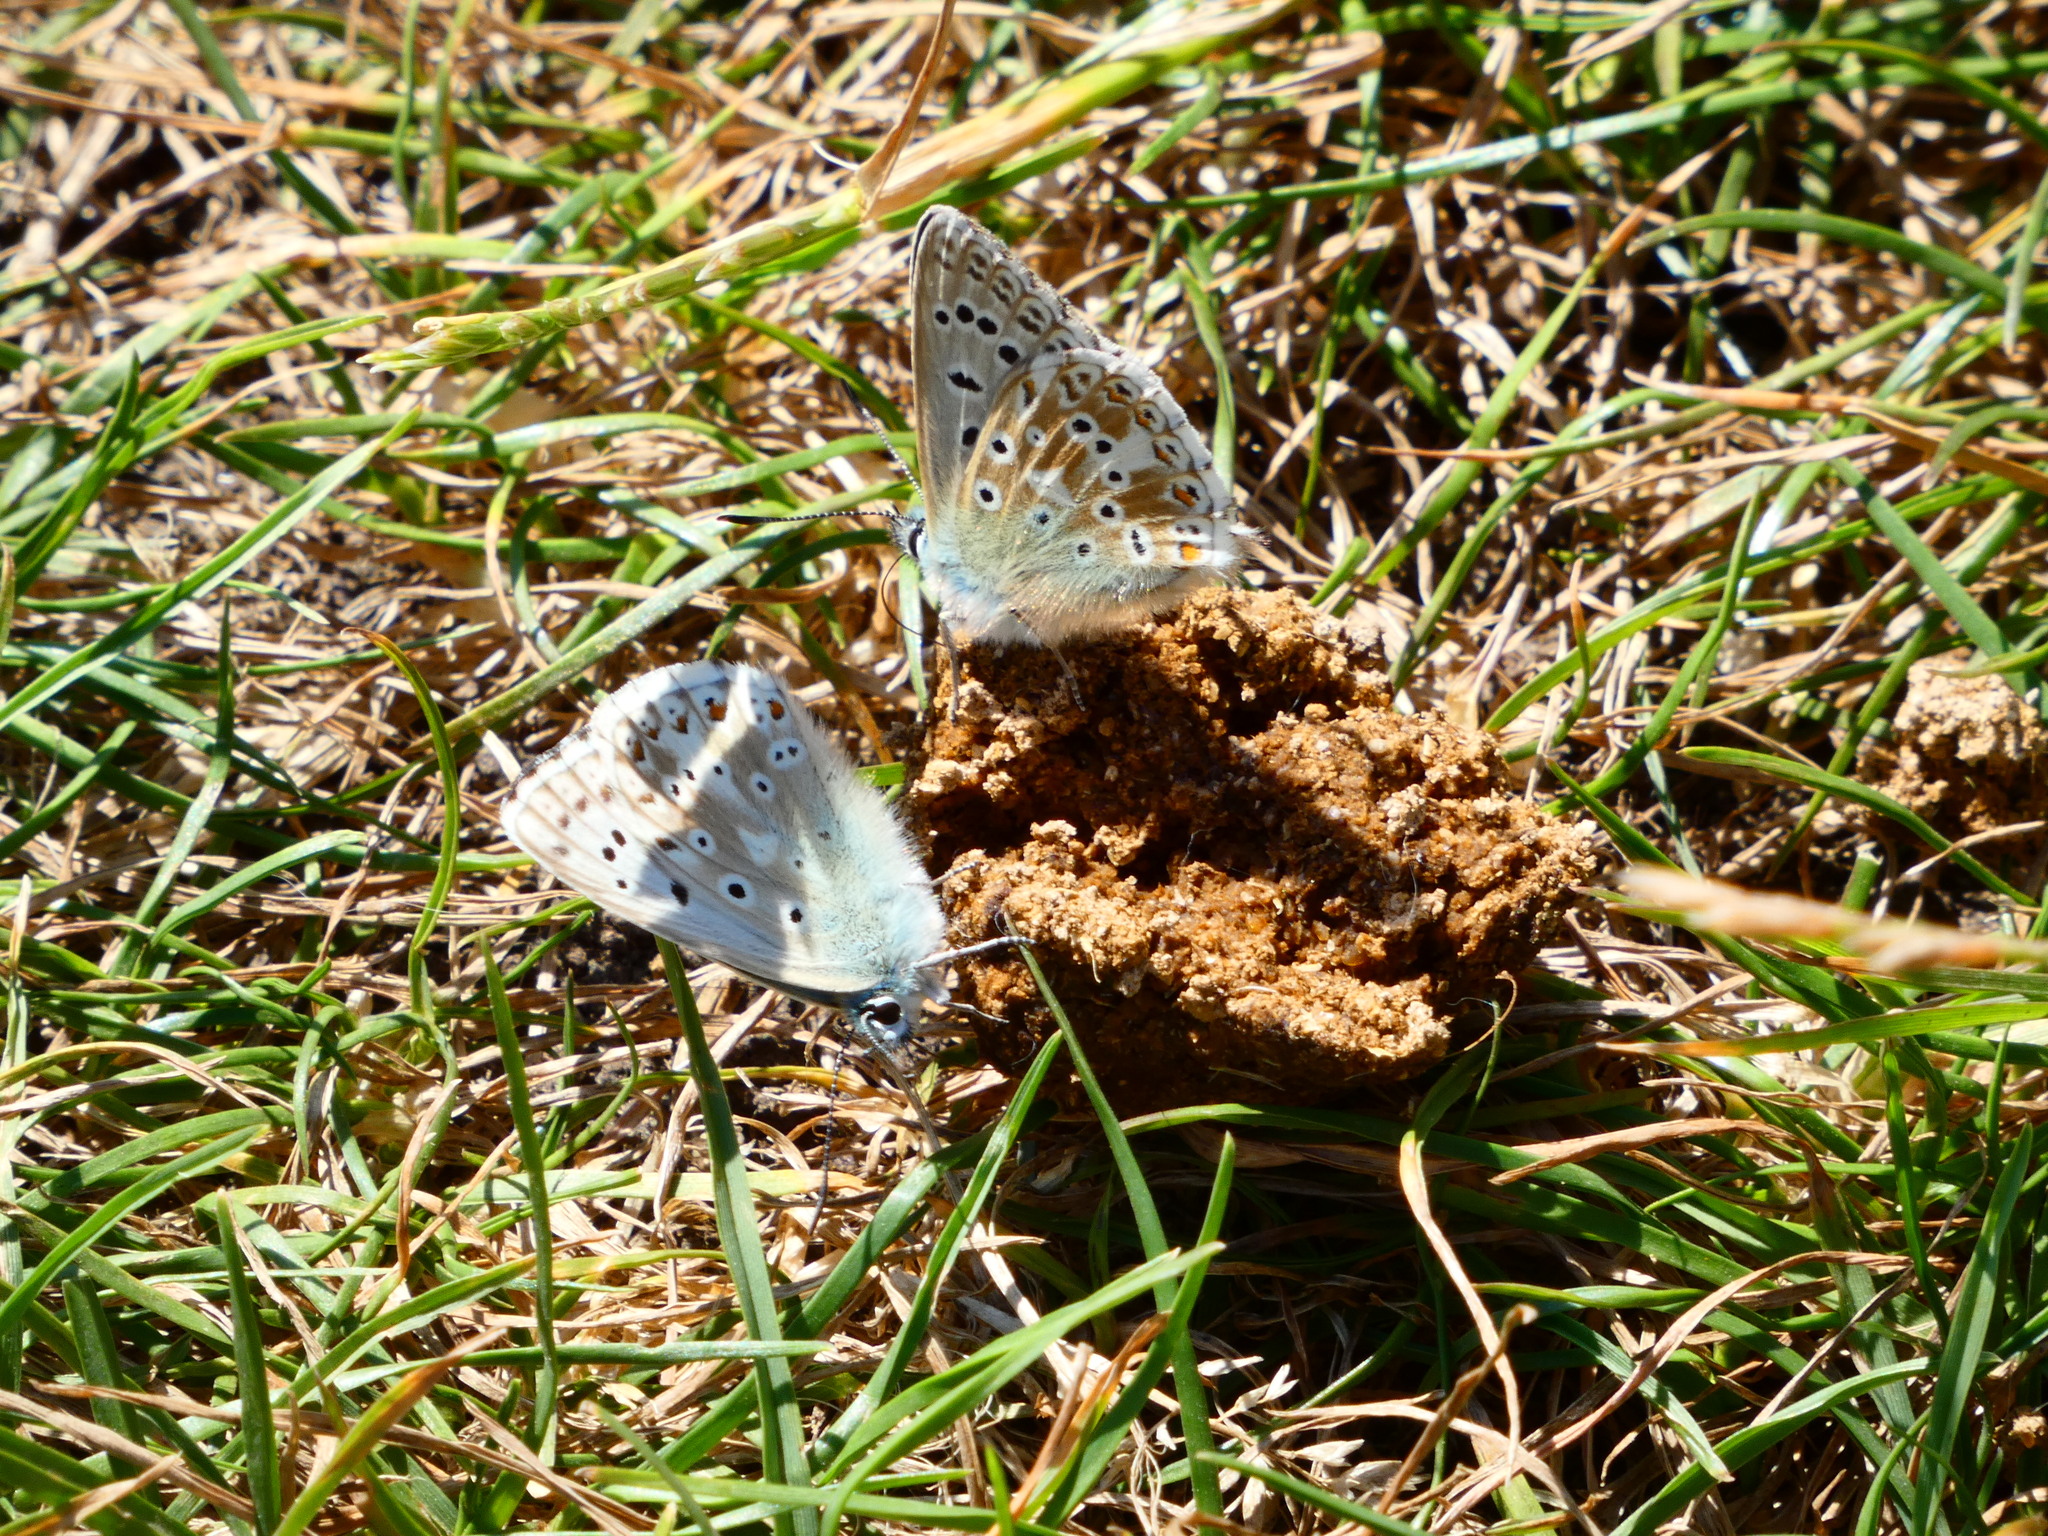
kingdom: Animalia
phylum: Arthropoda
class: Insecta
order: Lepidoptera
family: Lycaenidae
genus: Lysandra
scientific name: Lysandra coridon
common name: Chalkhill blue
